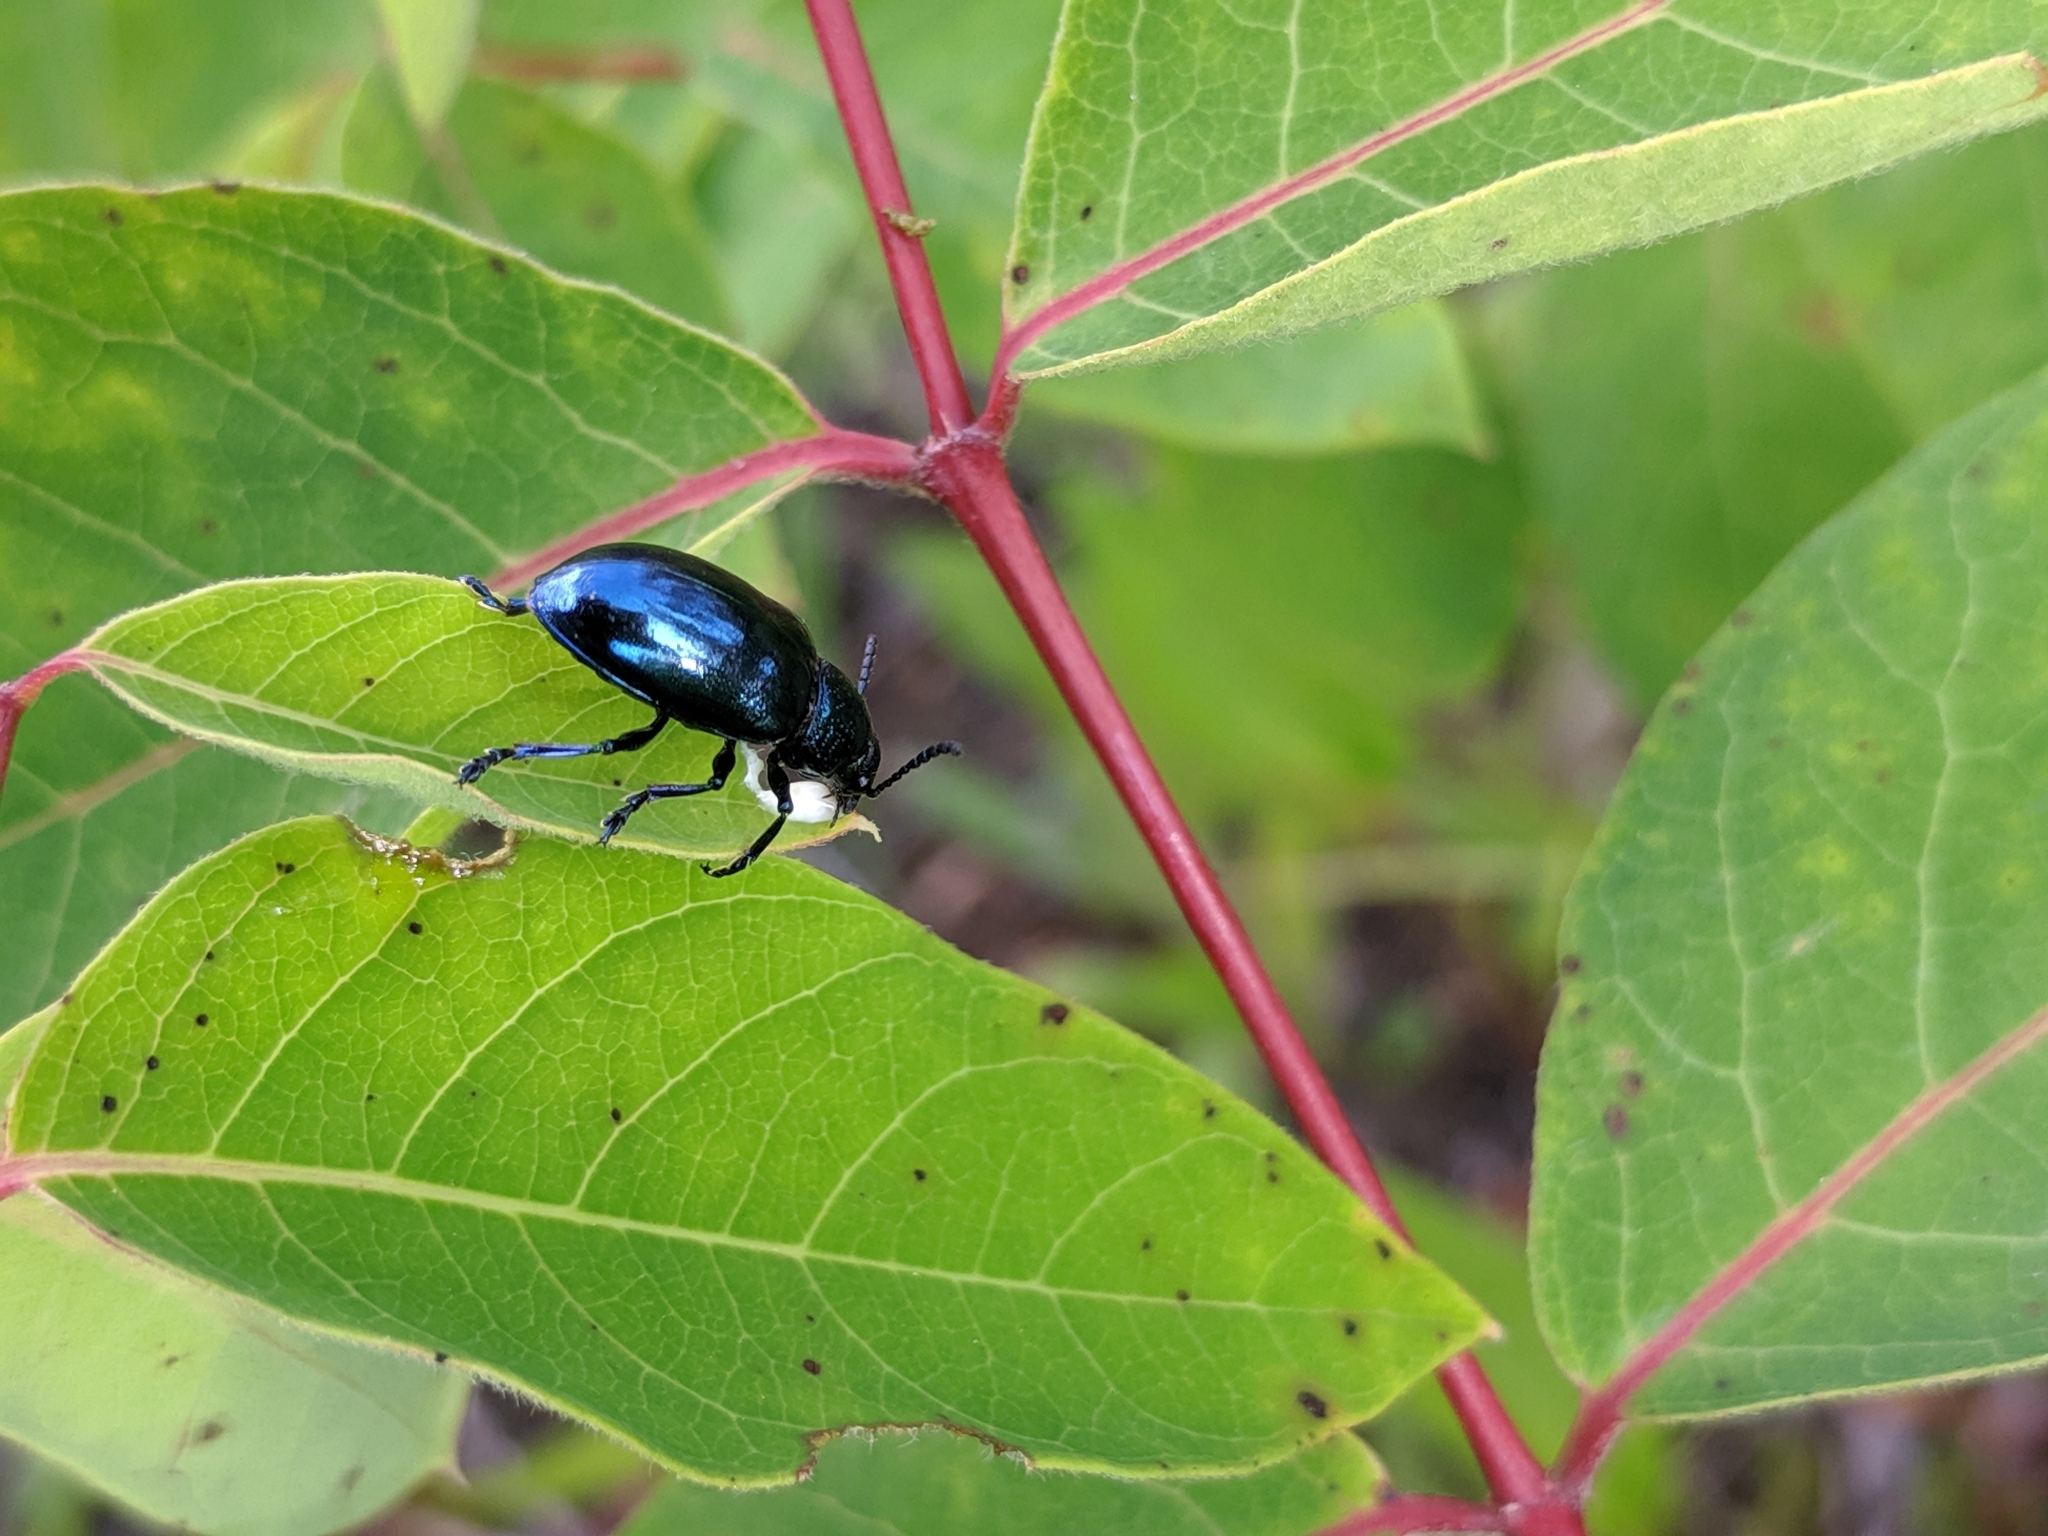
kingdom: Animalia
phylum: Arthropoda
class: Insecta
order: Coleoptera
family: Chrysomelidae
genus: Chrysochus
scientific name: Chrysochus cobaltinus
